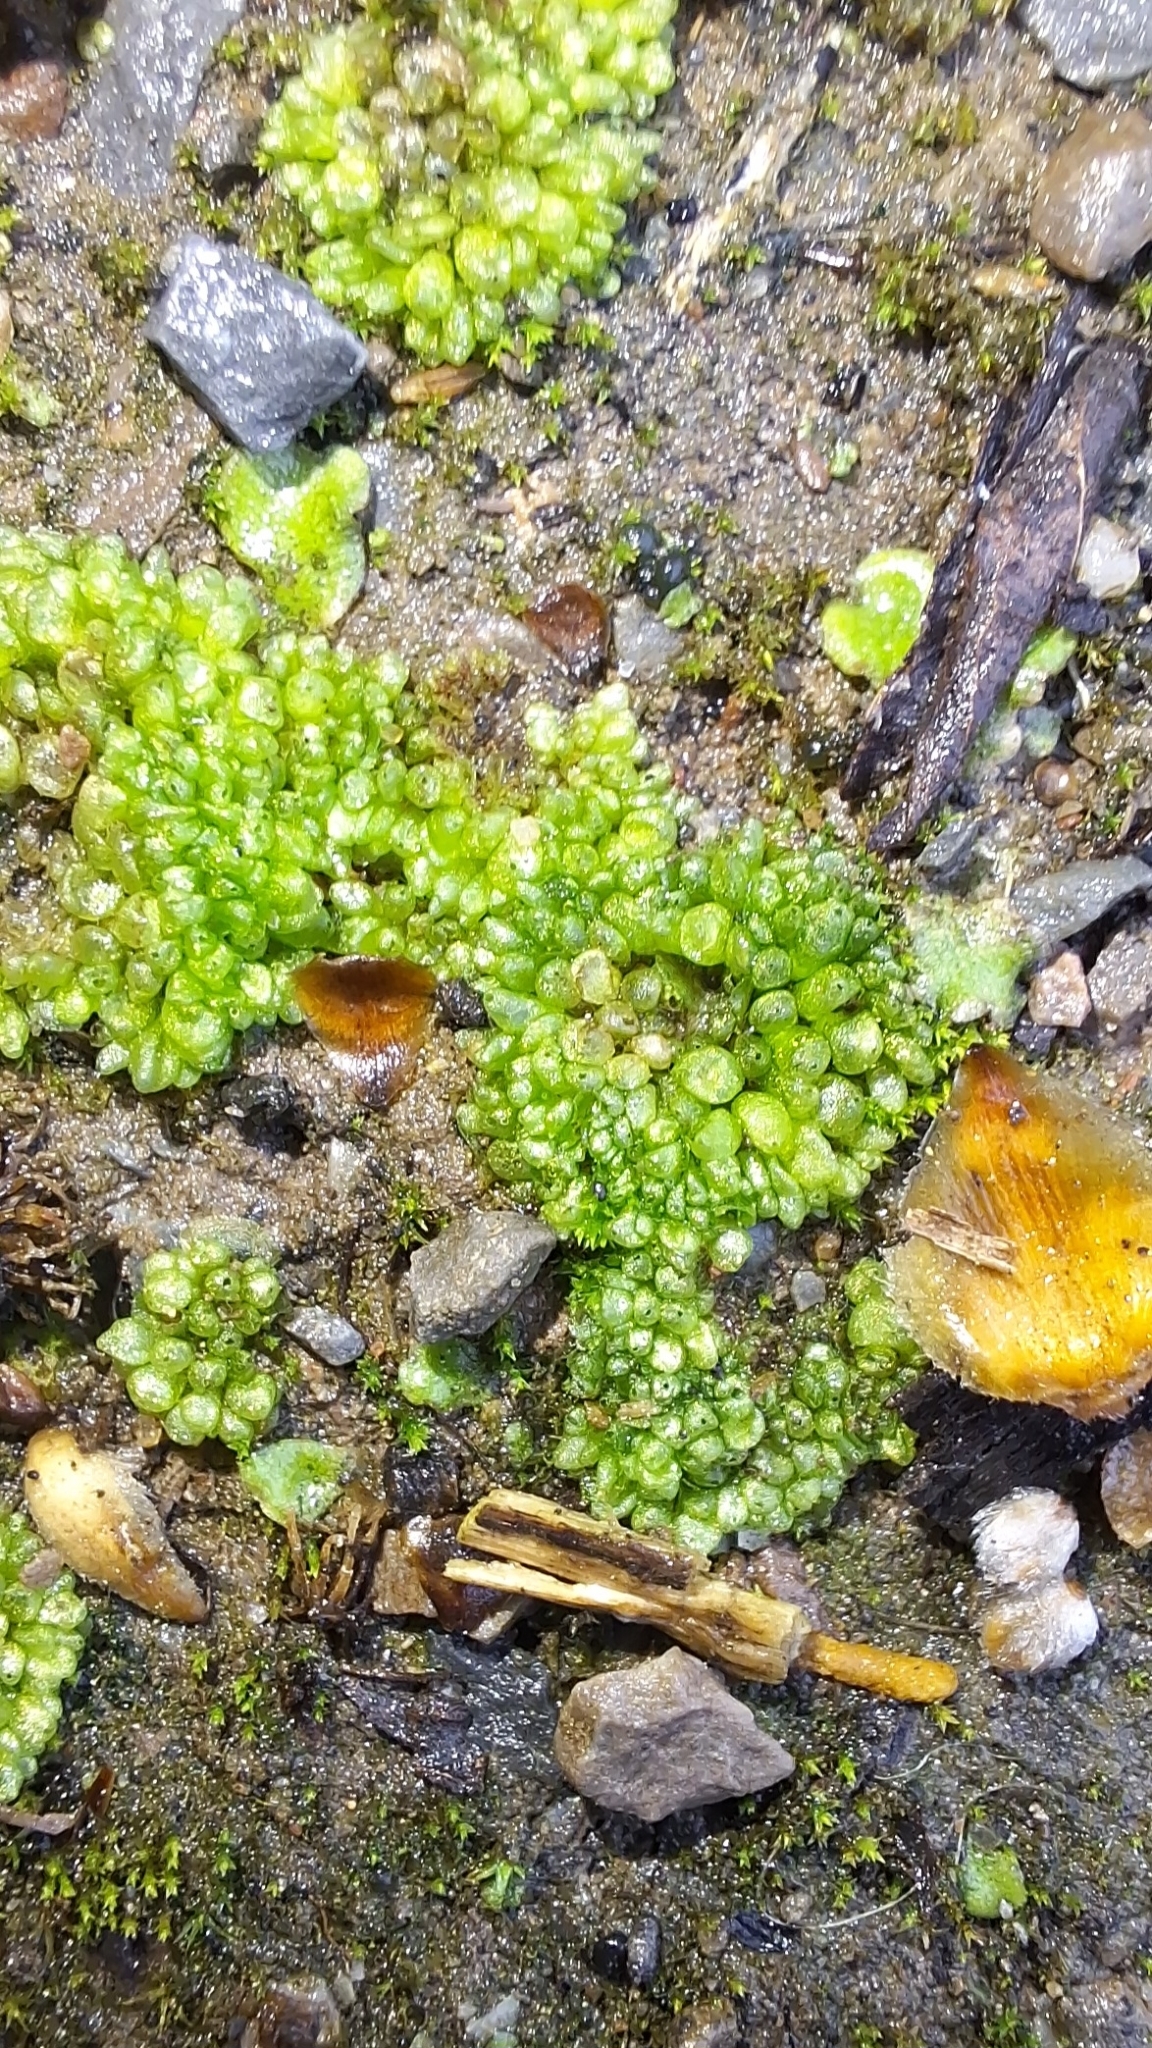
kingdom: Plantae
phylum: Marchantiophyta
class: Marchantiopsida
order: Sphaerocarpales
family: Sphaerocarpaceae
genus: Sphaerocarpos
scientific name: Sphaerocarpos texanus
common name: Texas balloonwort
